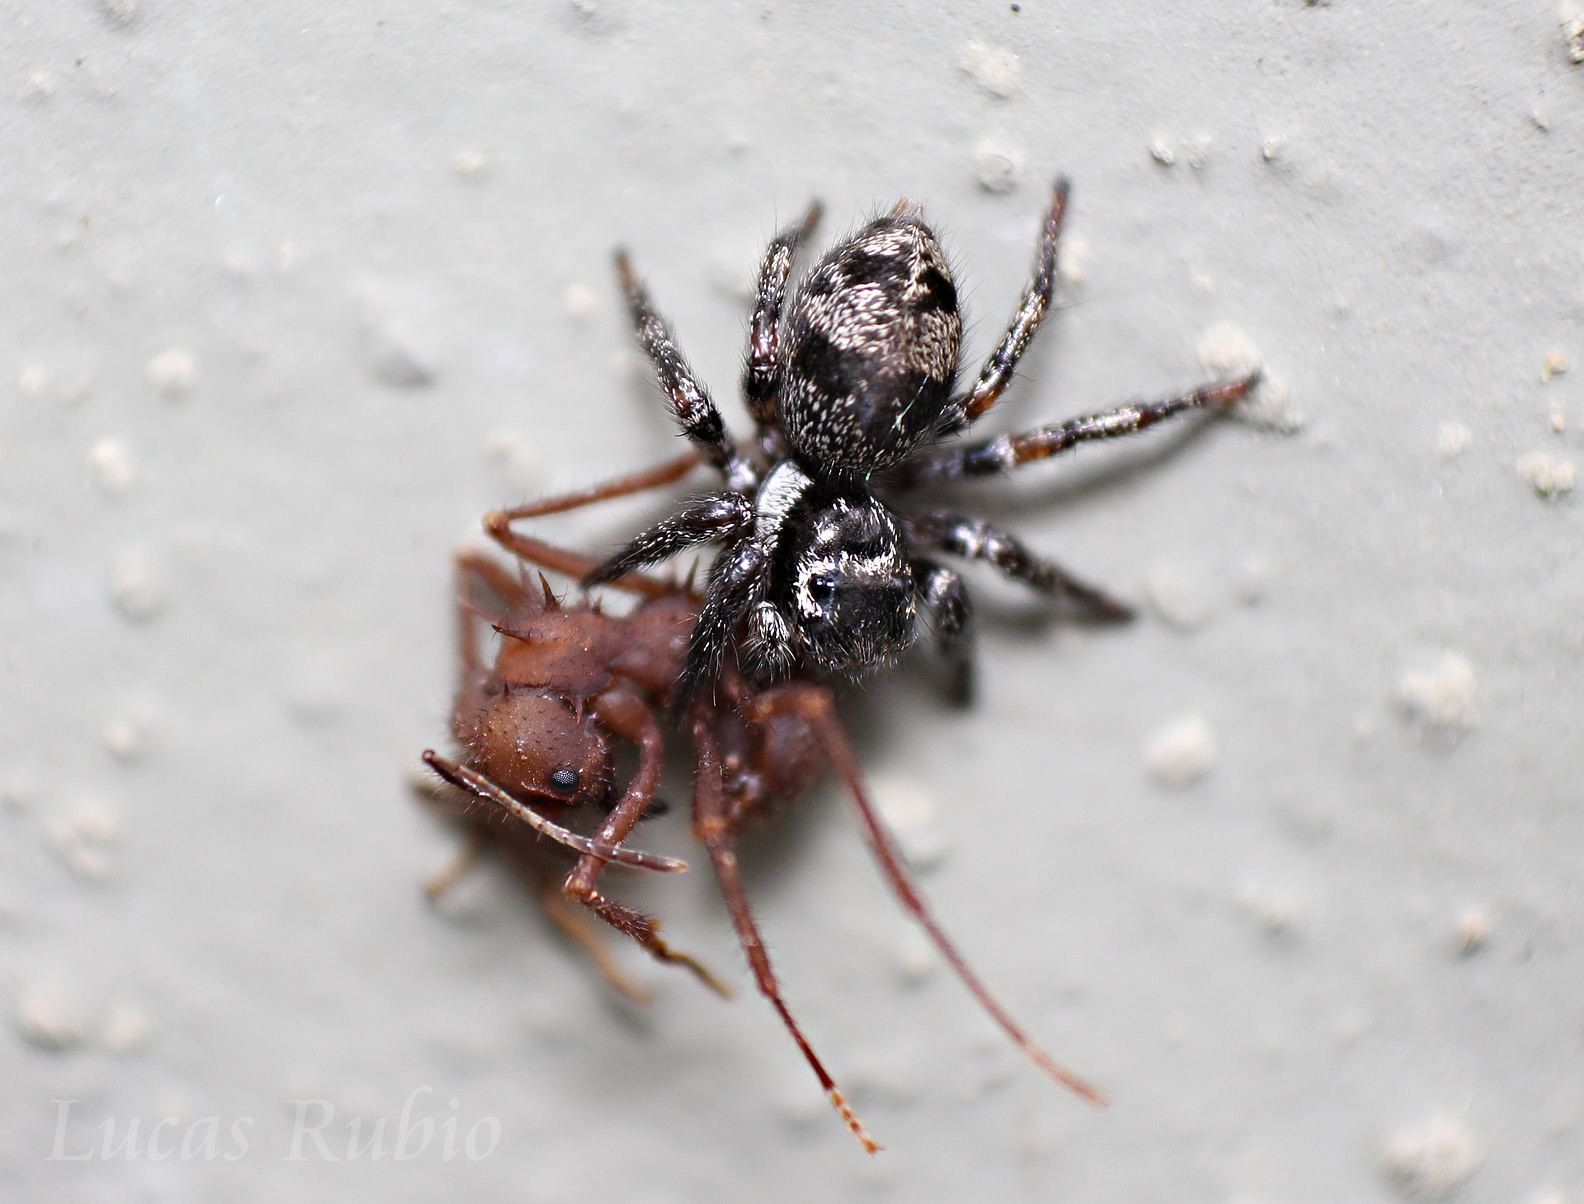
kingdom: Animalia
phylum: Arthropoda
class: Arachnida
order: Araneae
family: Salticidae
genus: Corythalia
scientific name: Corythalia conferta
